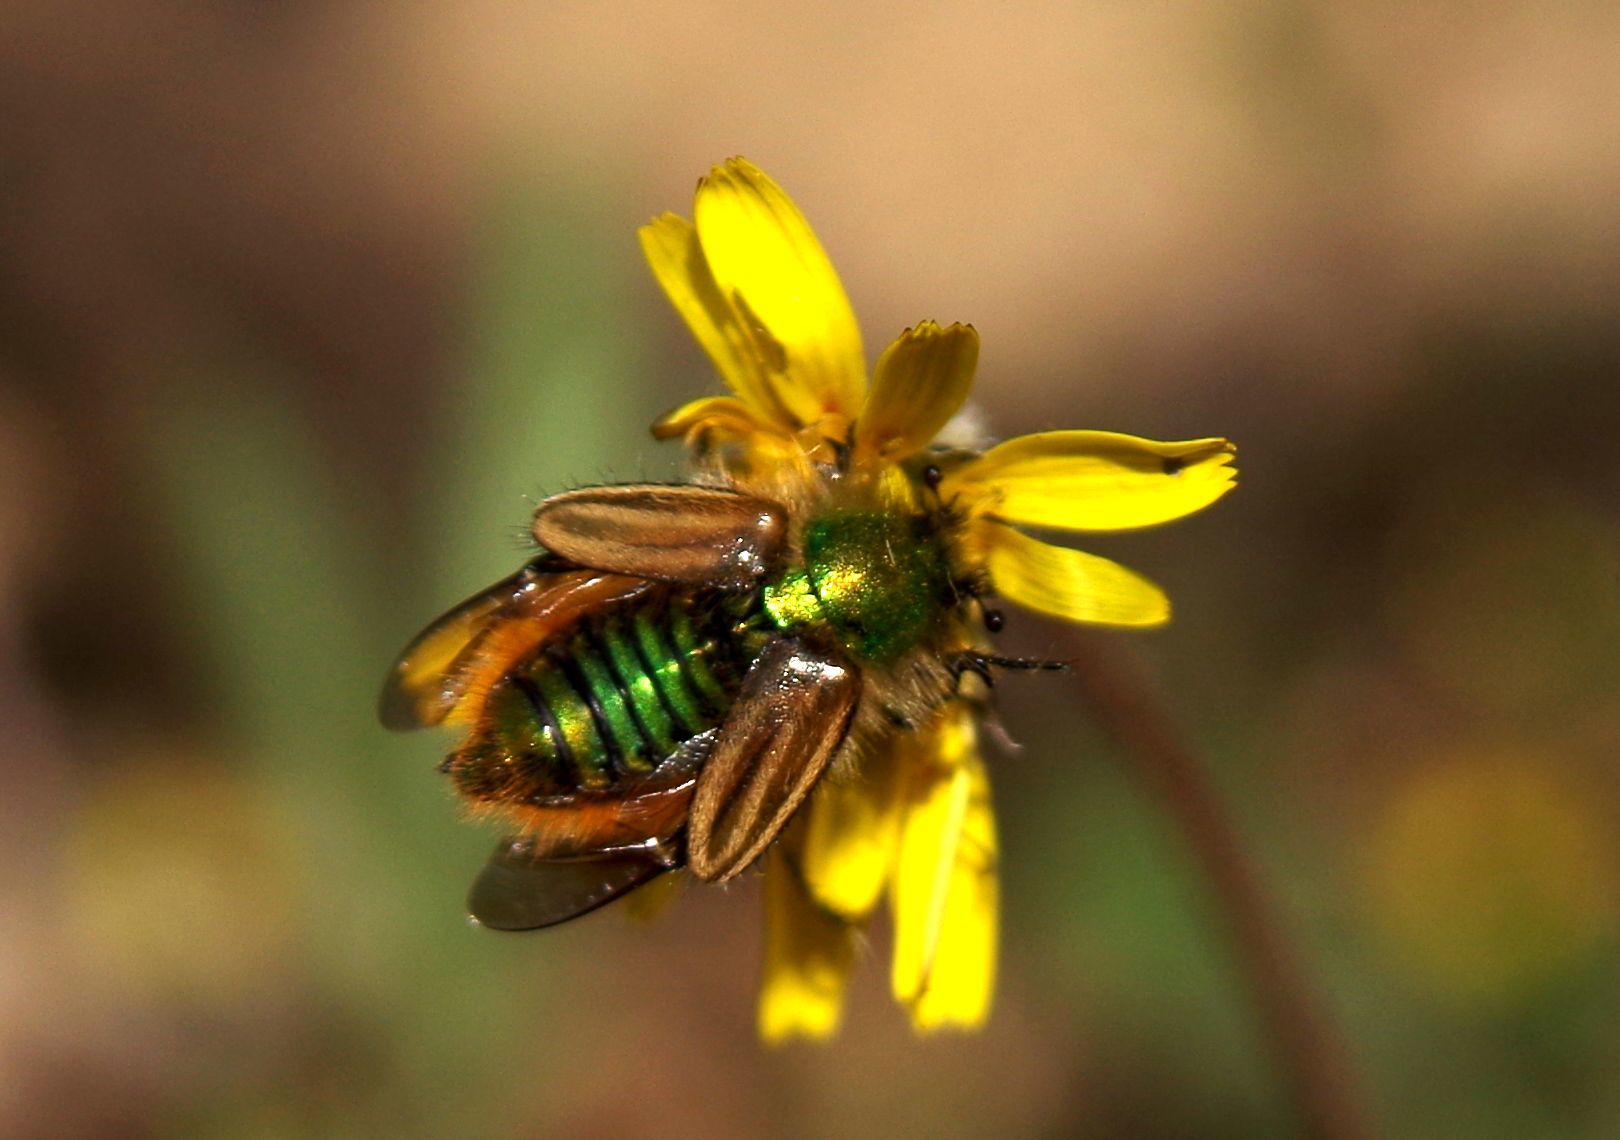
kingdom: Animalia
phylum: Arthropoda
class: Insecta
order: Coleoptera
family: Glaphyridae
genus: Eulasia
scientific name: Eulasia pareyssei
